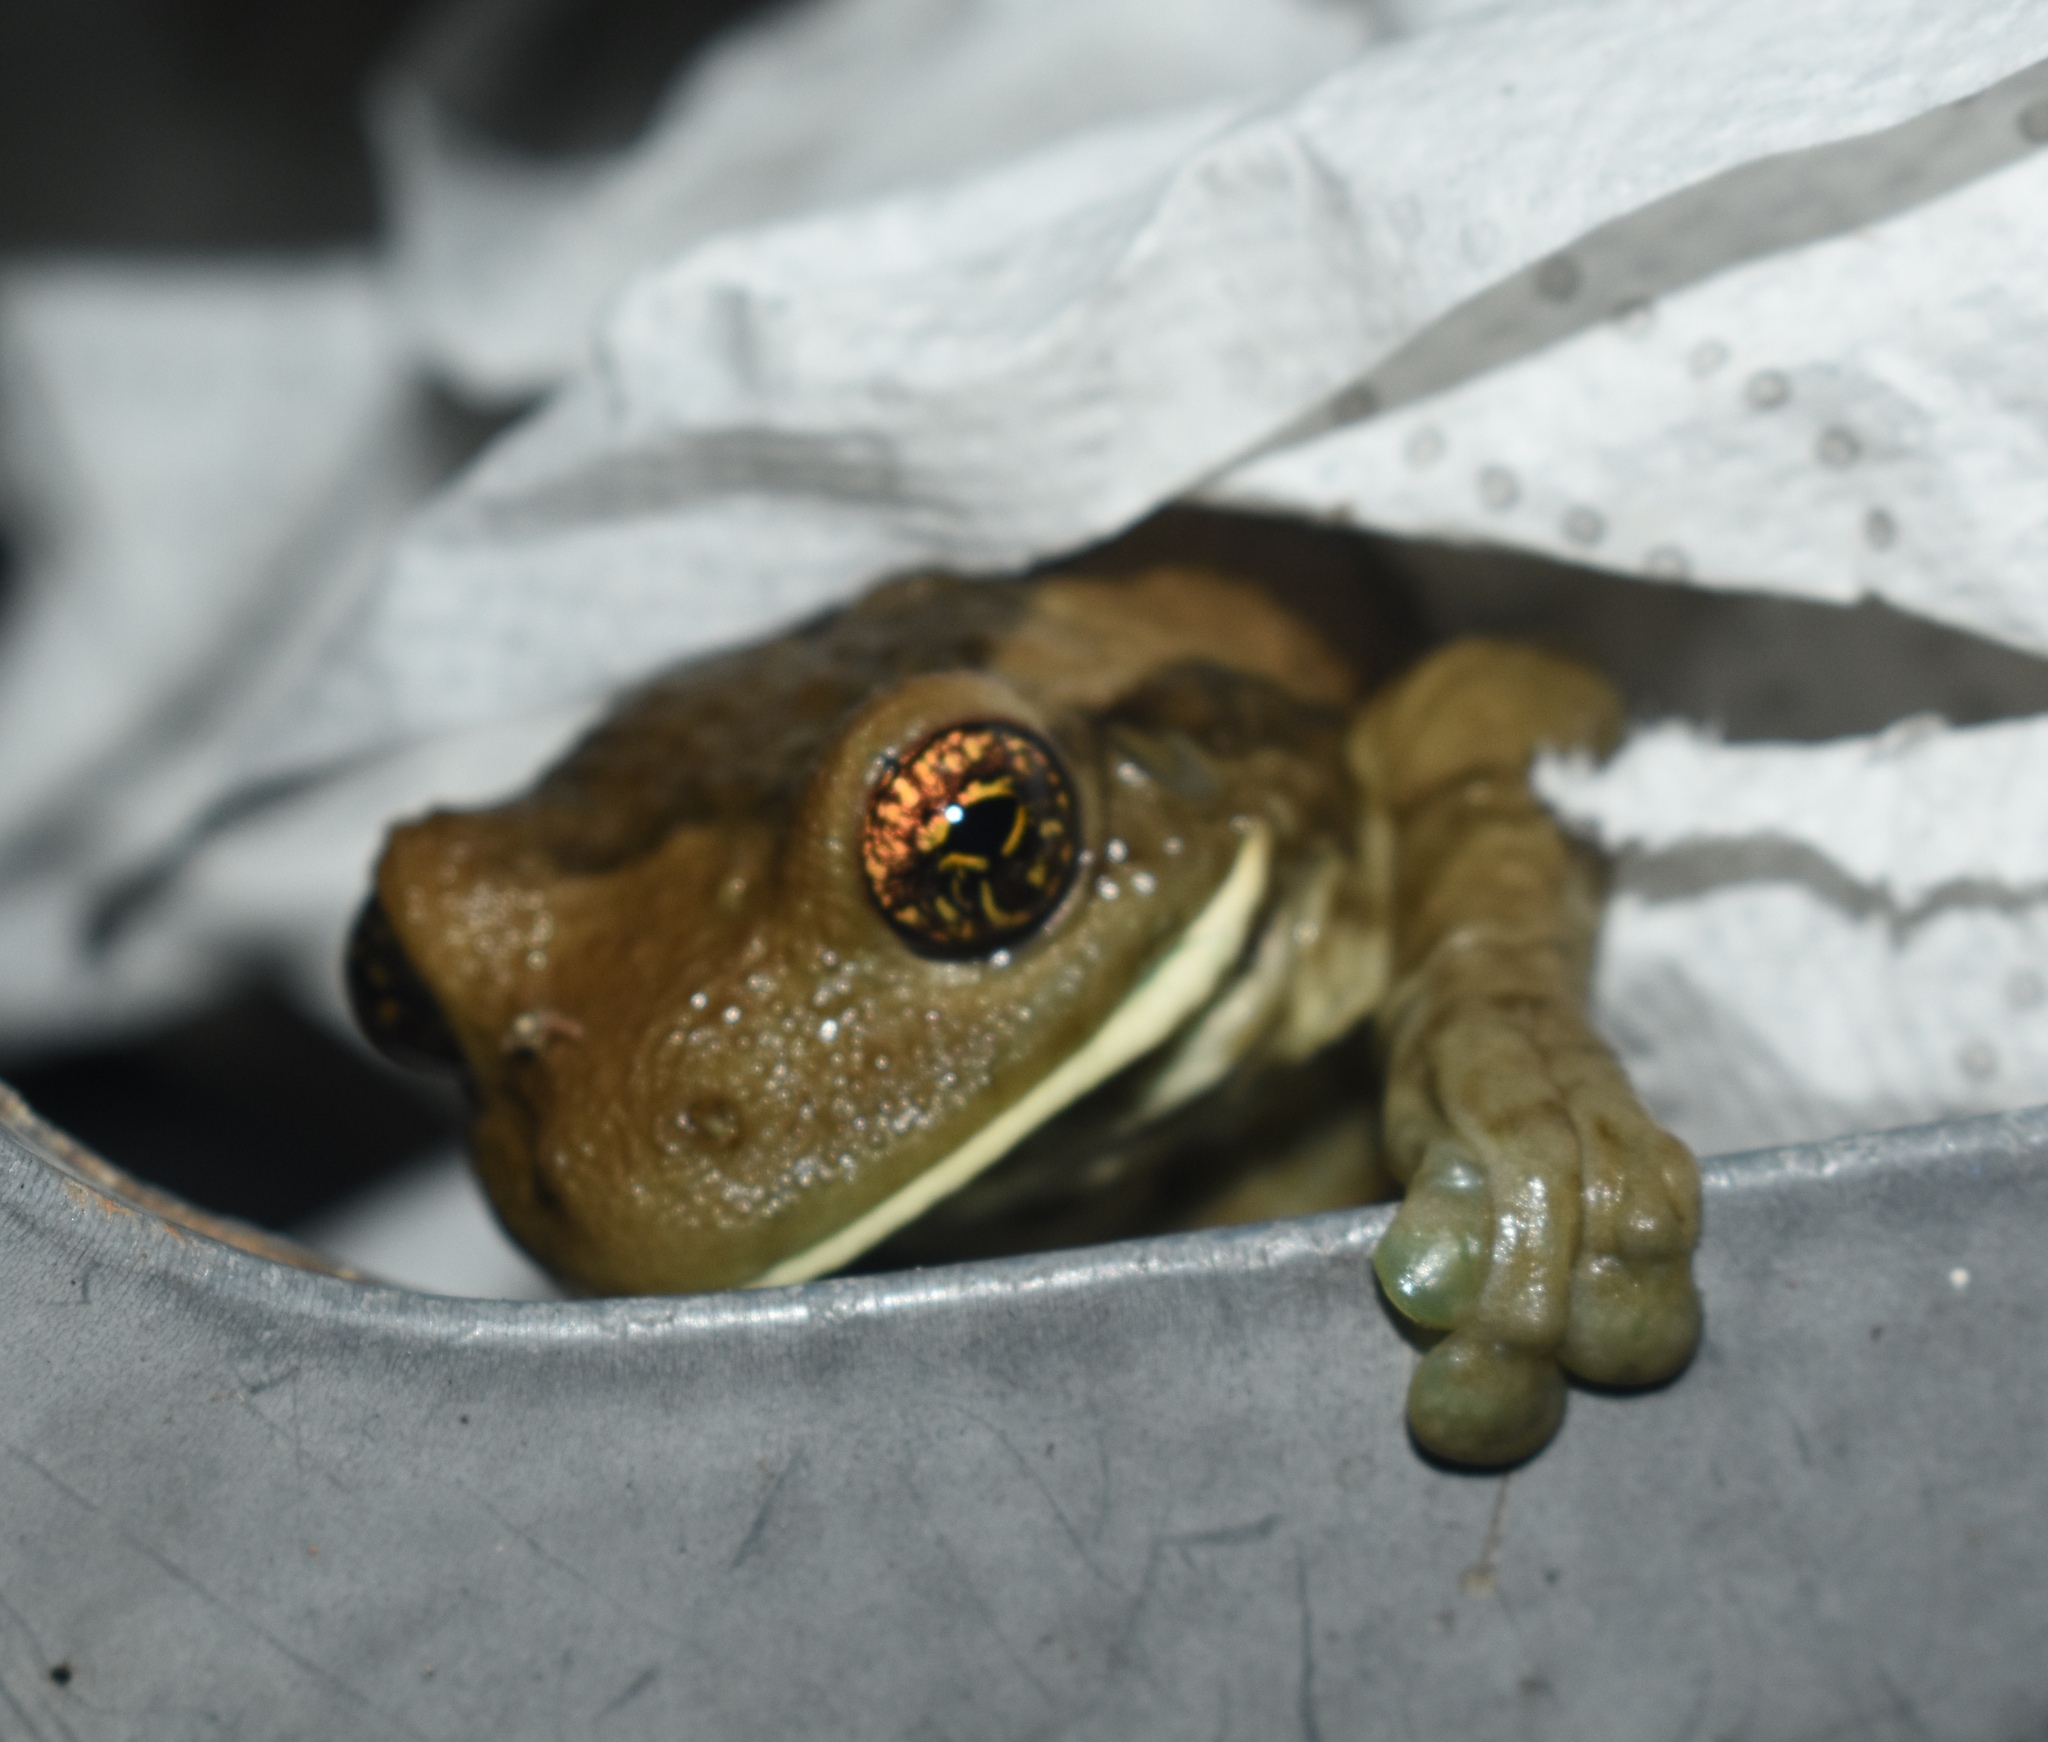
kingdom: Animalia
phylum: Chordata
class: Amphibia
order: Anura
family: Hylidae
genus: Trachycephalus
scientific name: Trachycephalus vermiculatus
